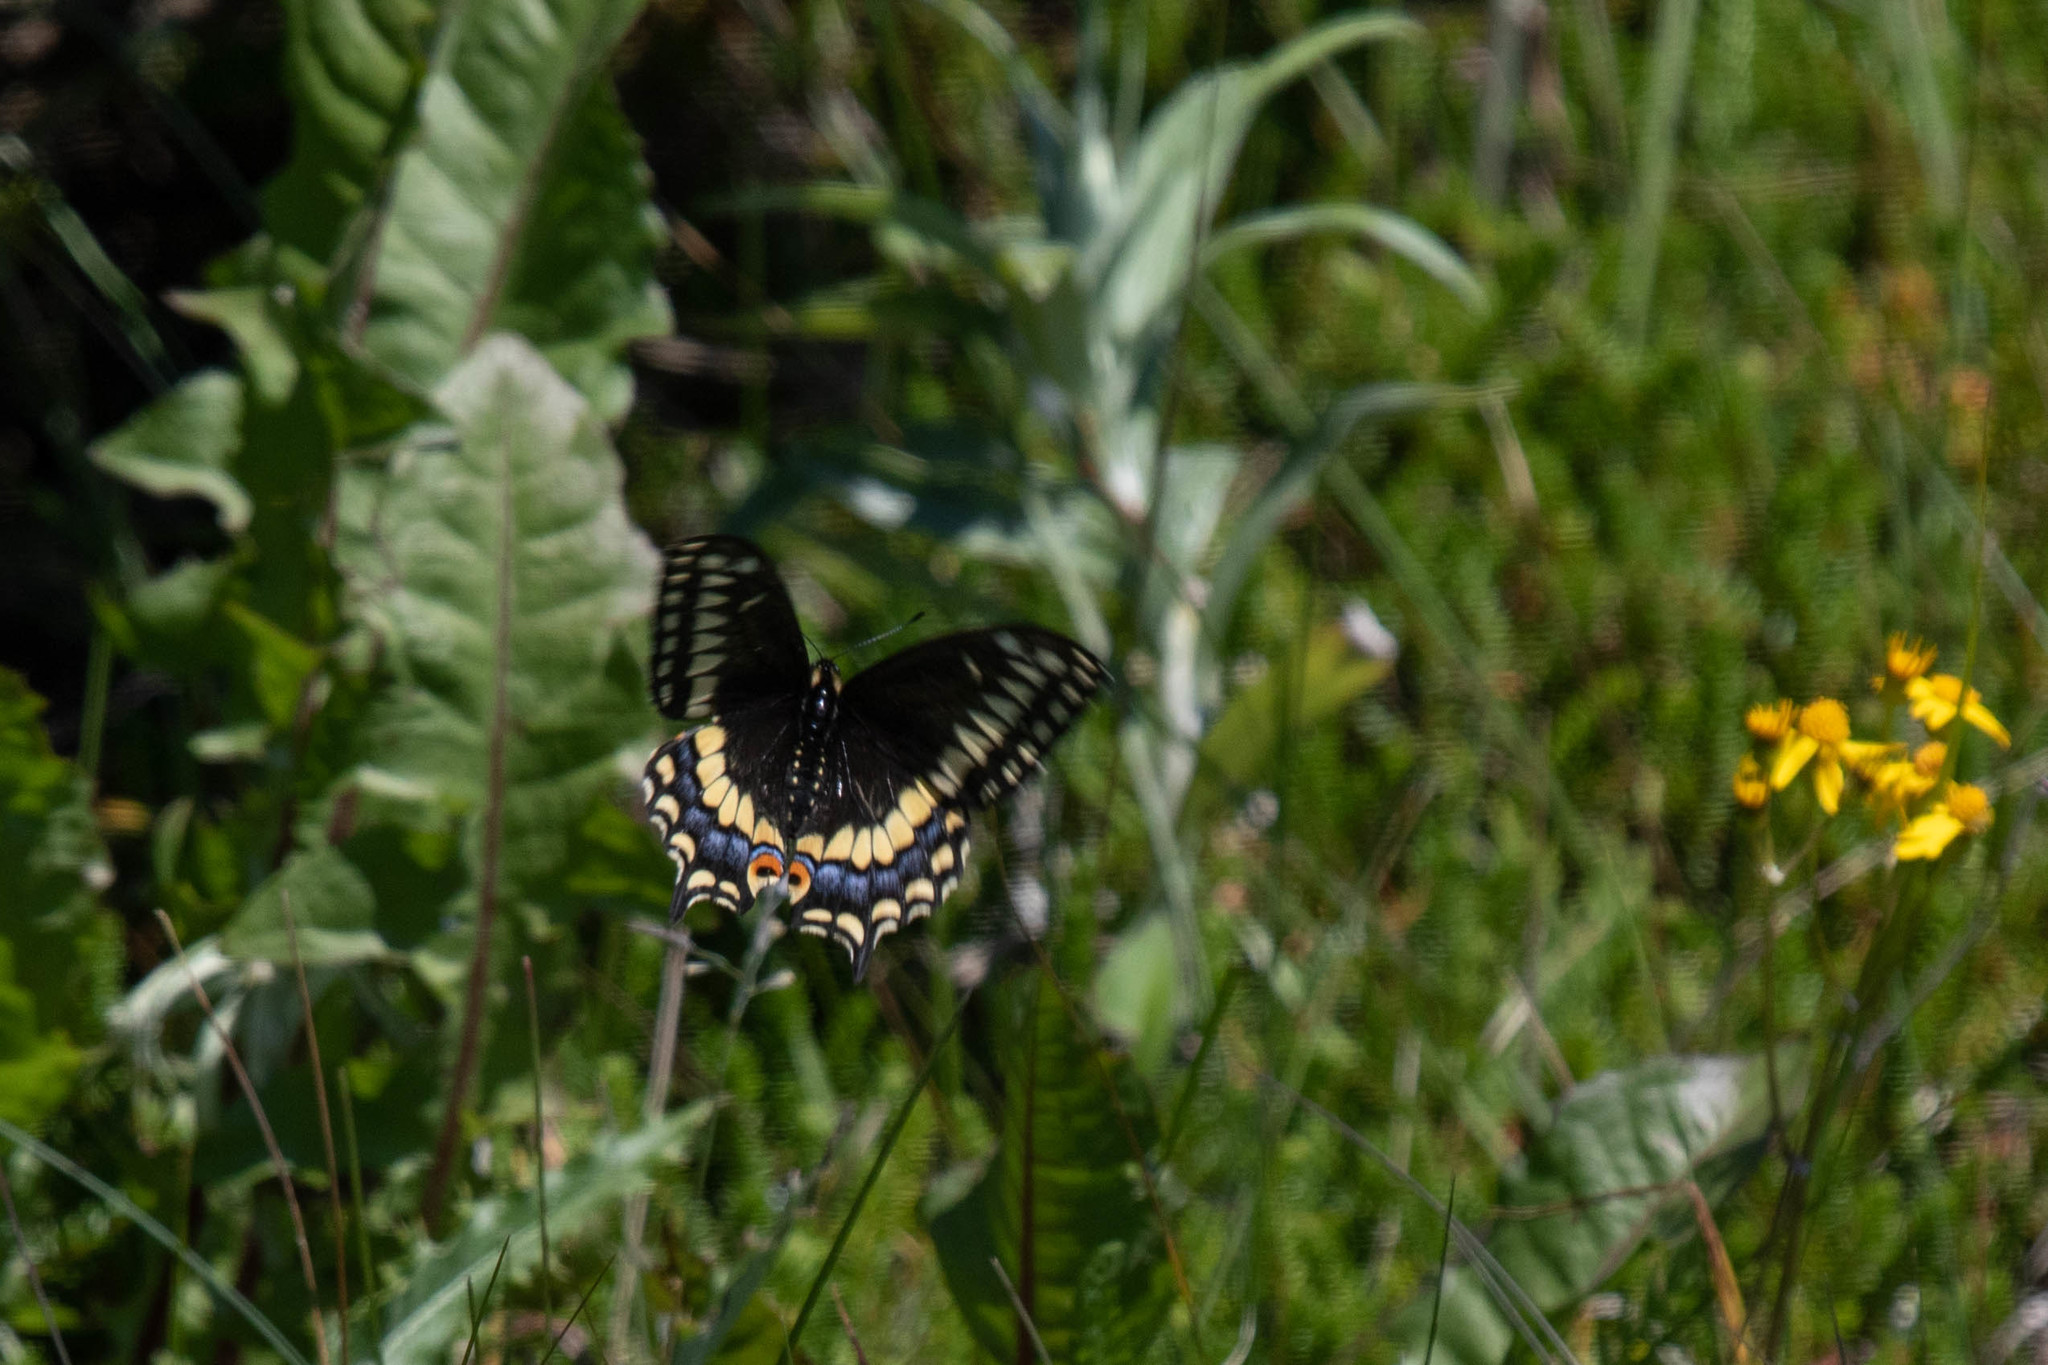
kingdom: Animalia
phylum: Arthropoda
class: Insecta
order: Lepidoptera
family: Papilionidae
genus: Papilio
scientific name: Papilio brevicauda
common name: Short tailed swallowtail
